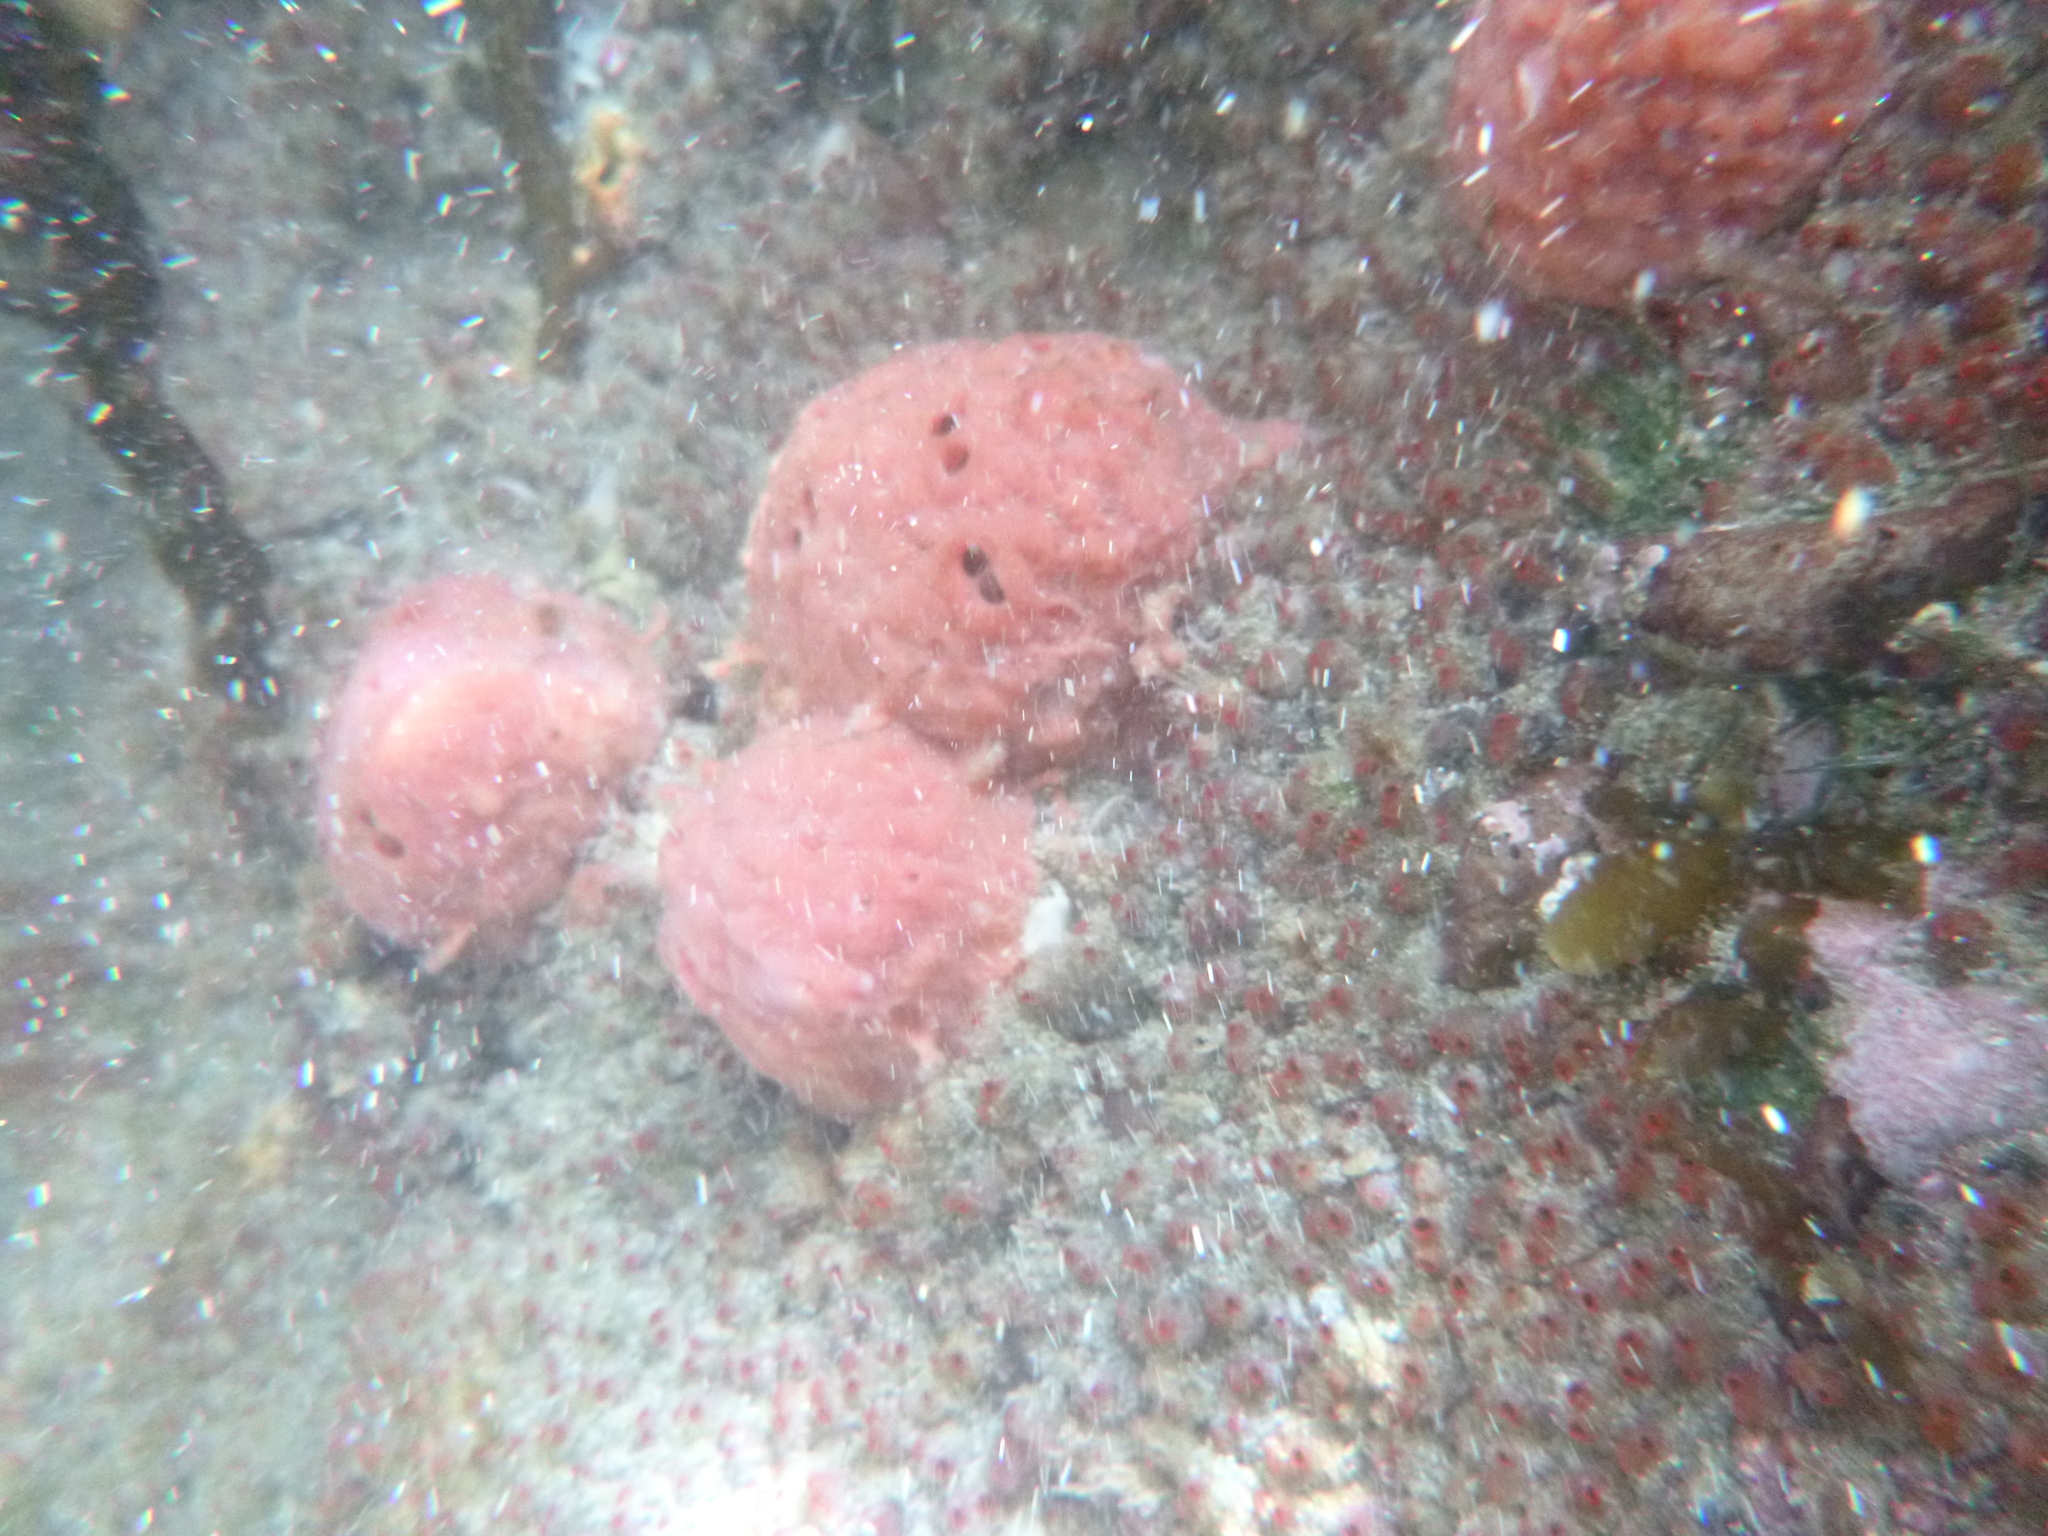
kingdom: Animalia
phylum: Porifera
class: Demospongiae
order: Tethyida
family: Tethyidae
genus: Tethya
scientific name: Tethya bergquistae
